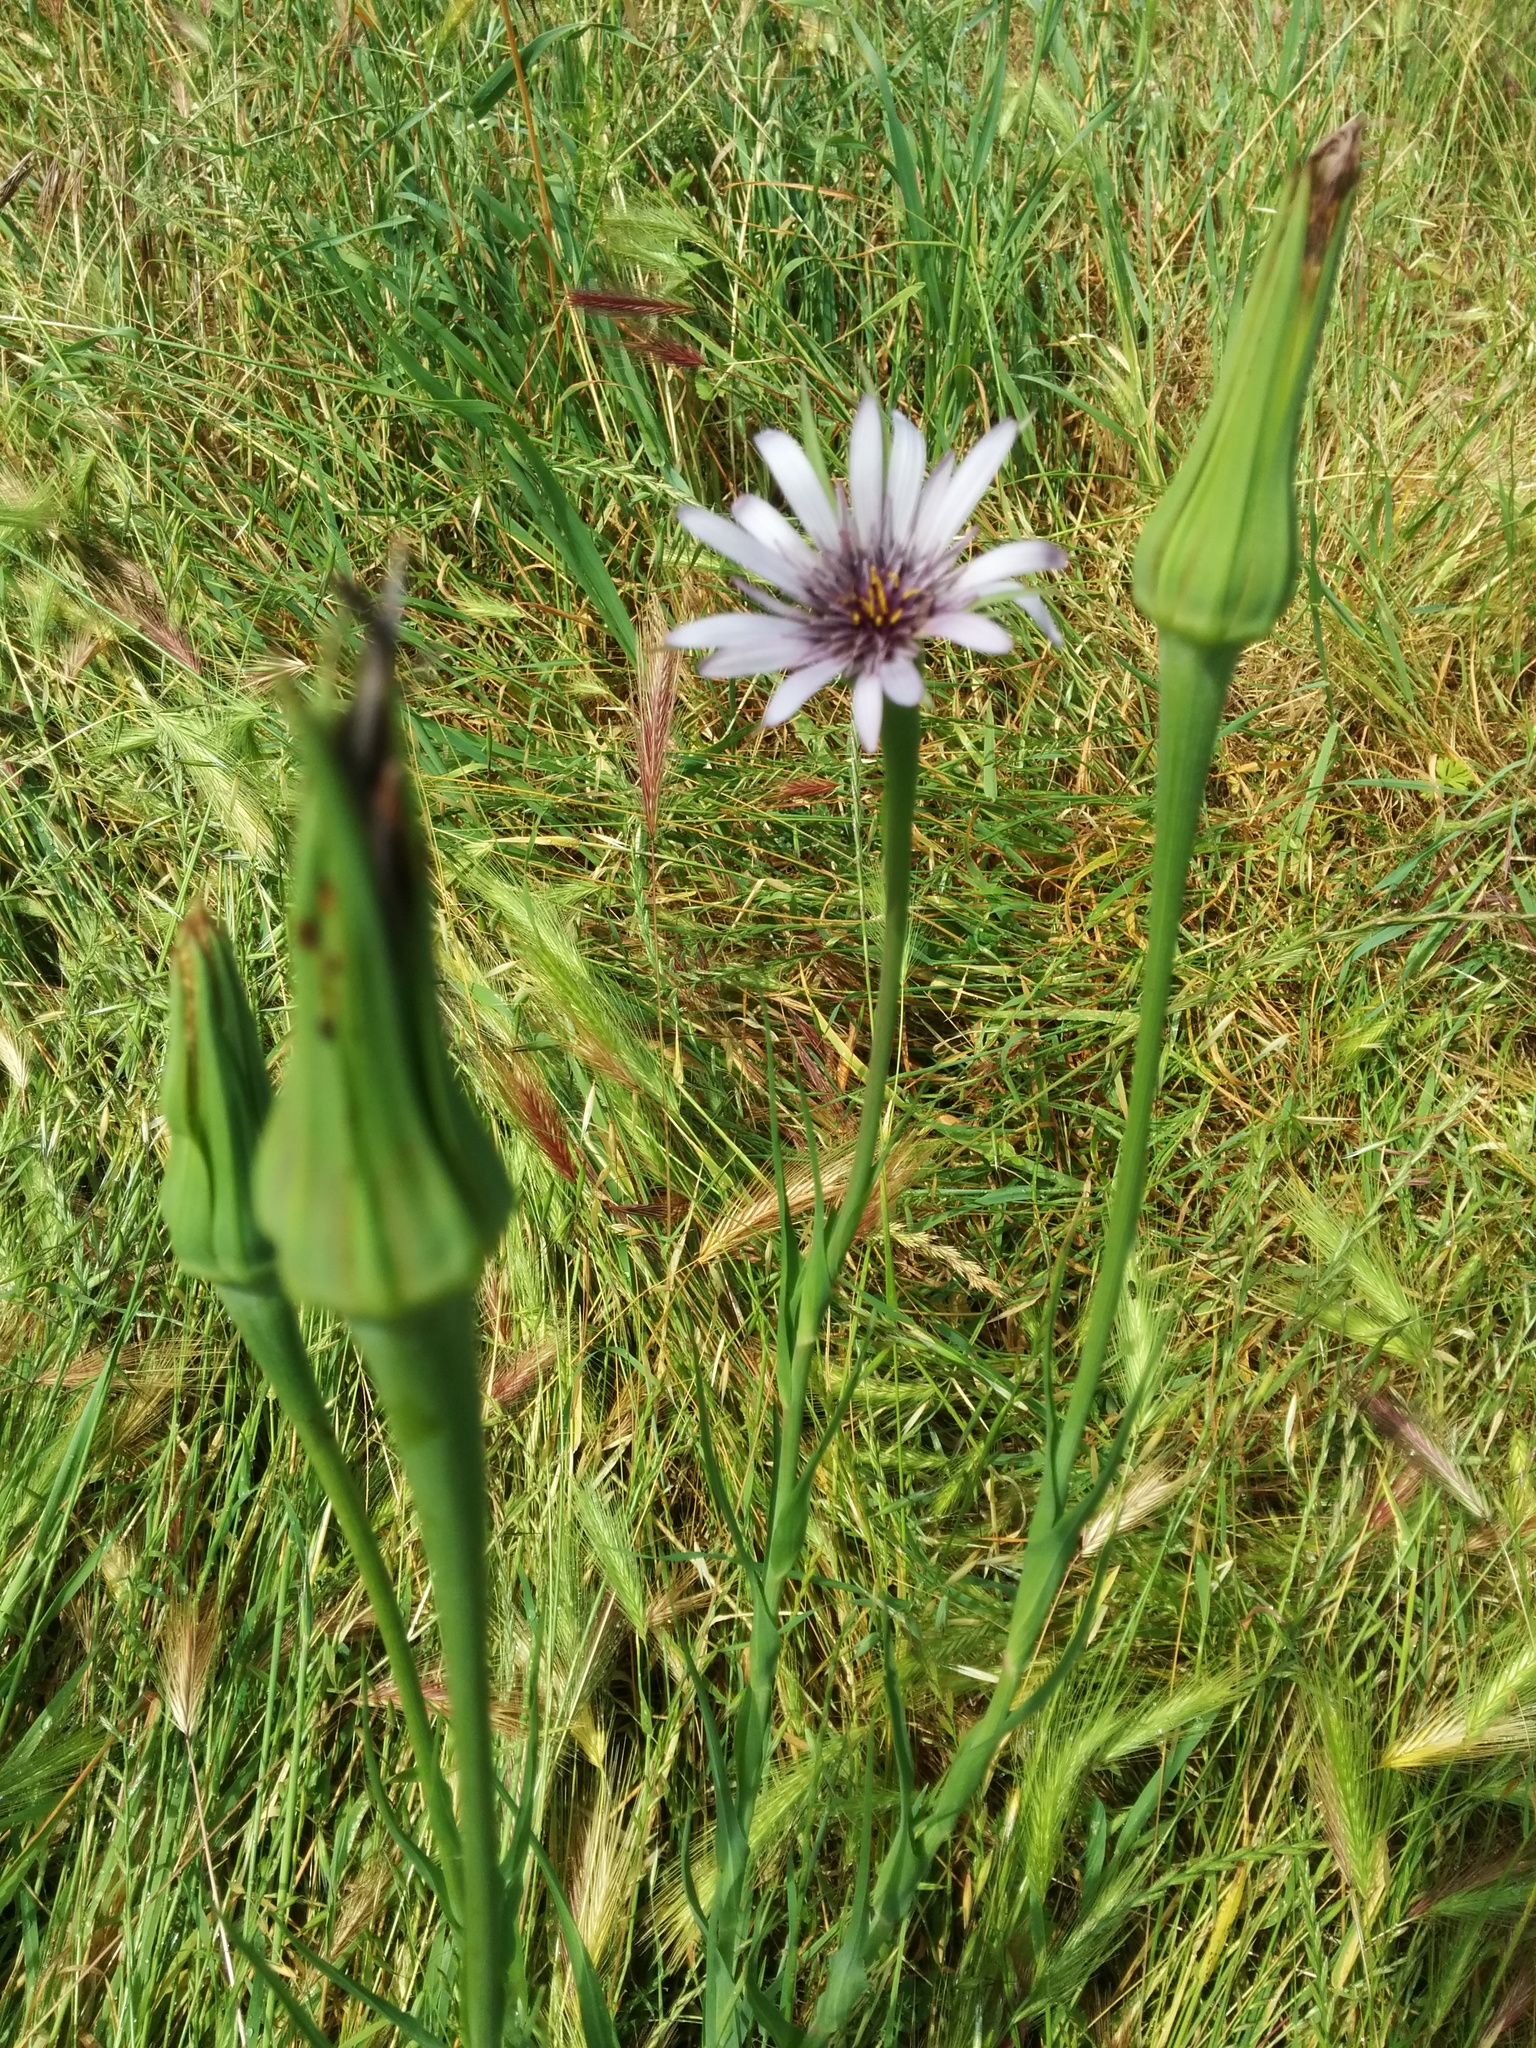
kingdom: Plantae
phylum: Tracheophyta
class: Magnoliopsida
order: Asterales
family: Asteraceae
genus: Tragopogon
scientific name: Tragopogon porrifolius
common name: Salsify
